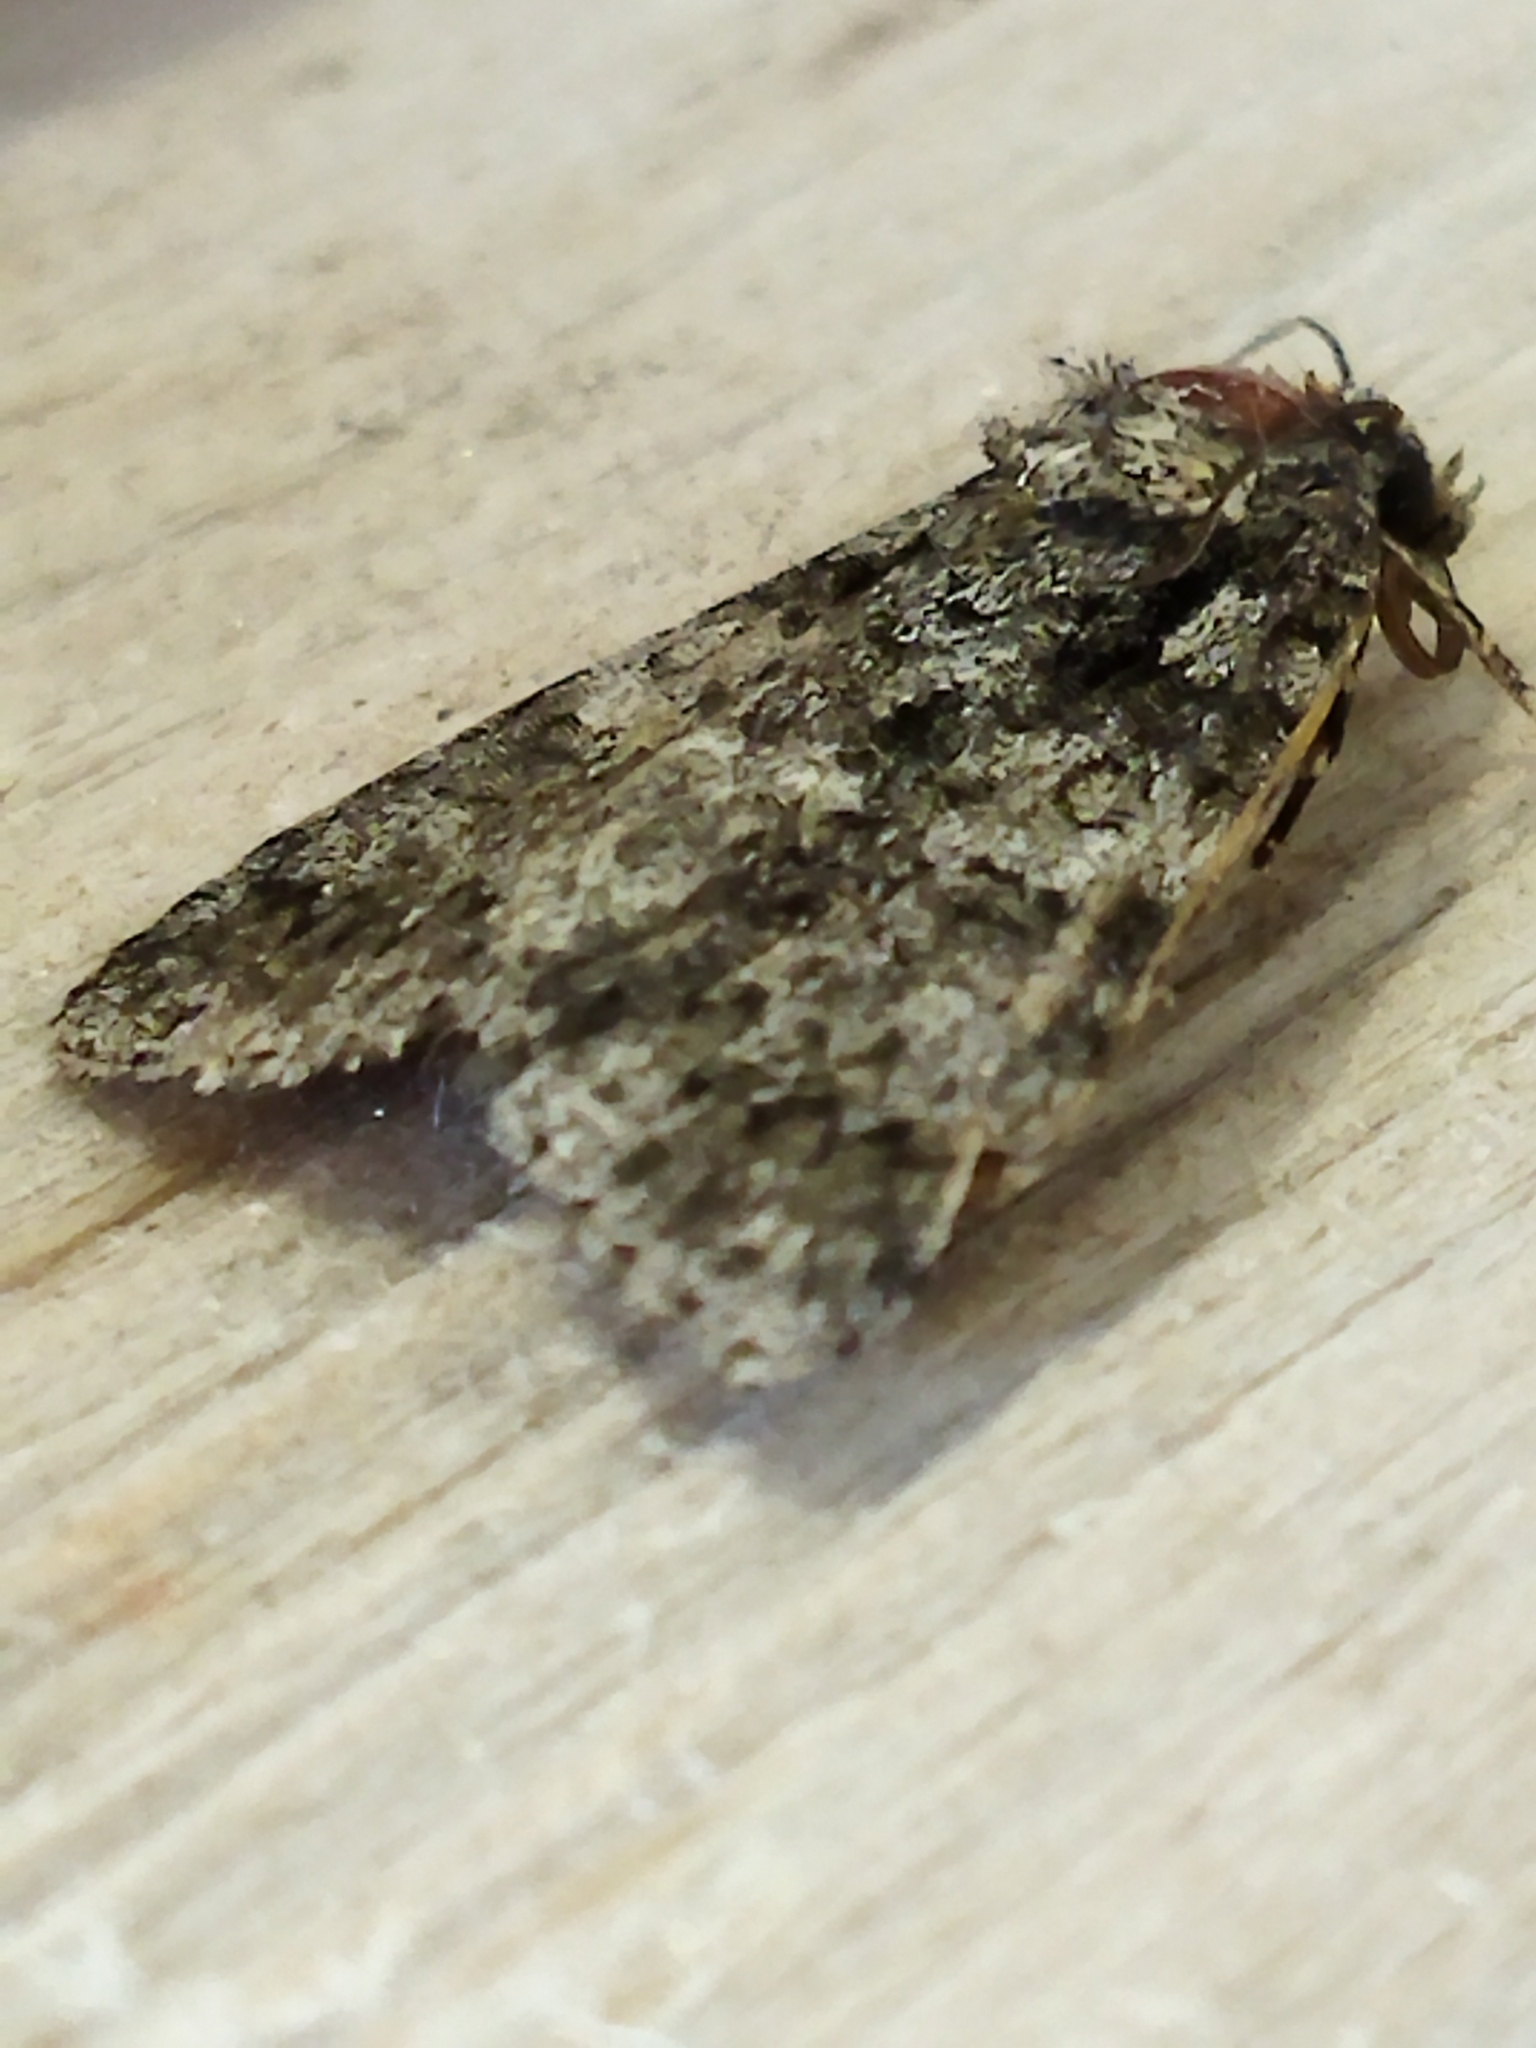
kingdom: Animalia
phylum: Arthropoda
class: Insecta
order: Lepidoptera
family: Noctuidae
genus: Acronicta
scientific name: Acronicta rumicis
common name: Knot grass
